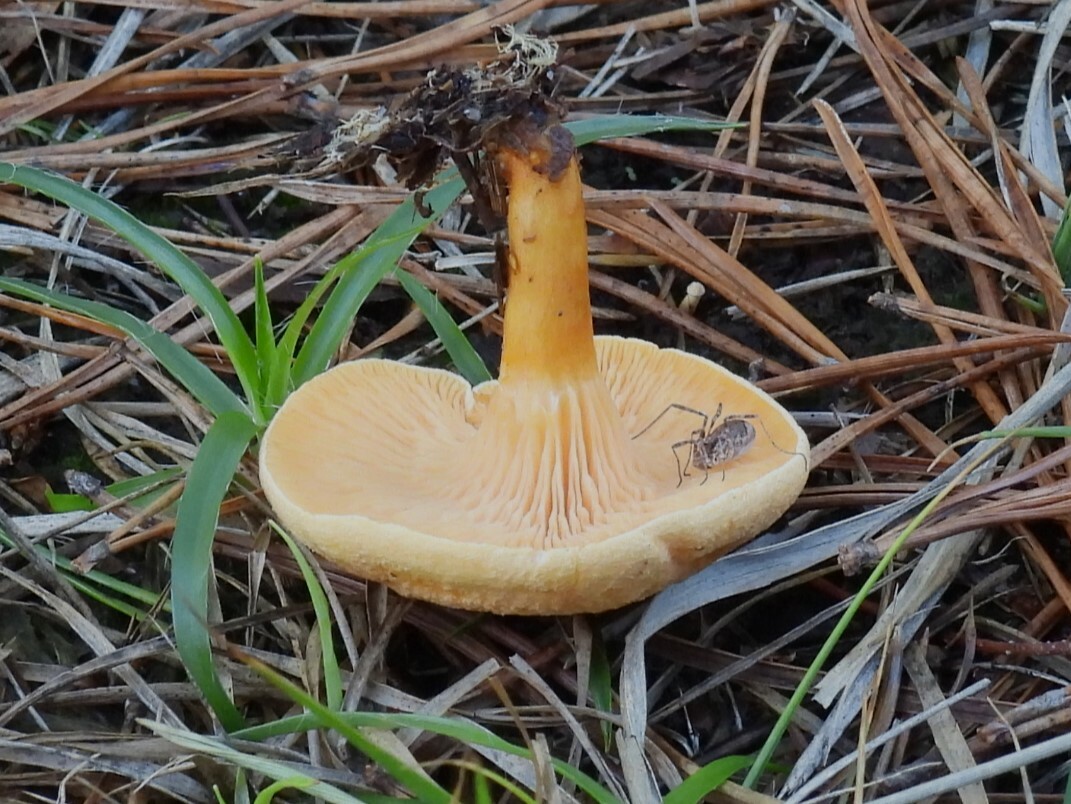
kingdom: Fungi
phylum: Basidiomycota
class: Agaricomycetes
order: Boletales
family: Hygrophoropsidaceae
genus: Hygrophoropsis
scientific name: Hygrophoropsis aurantiaca
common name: False chanterelle
